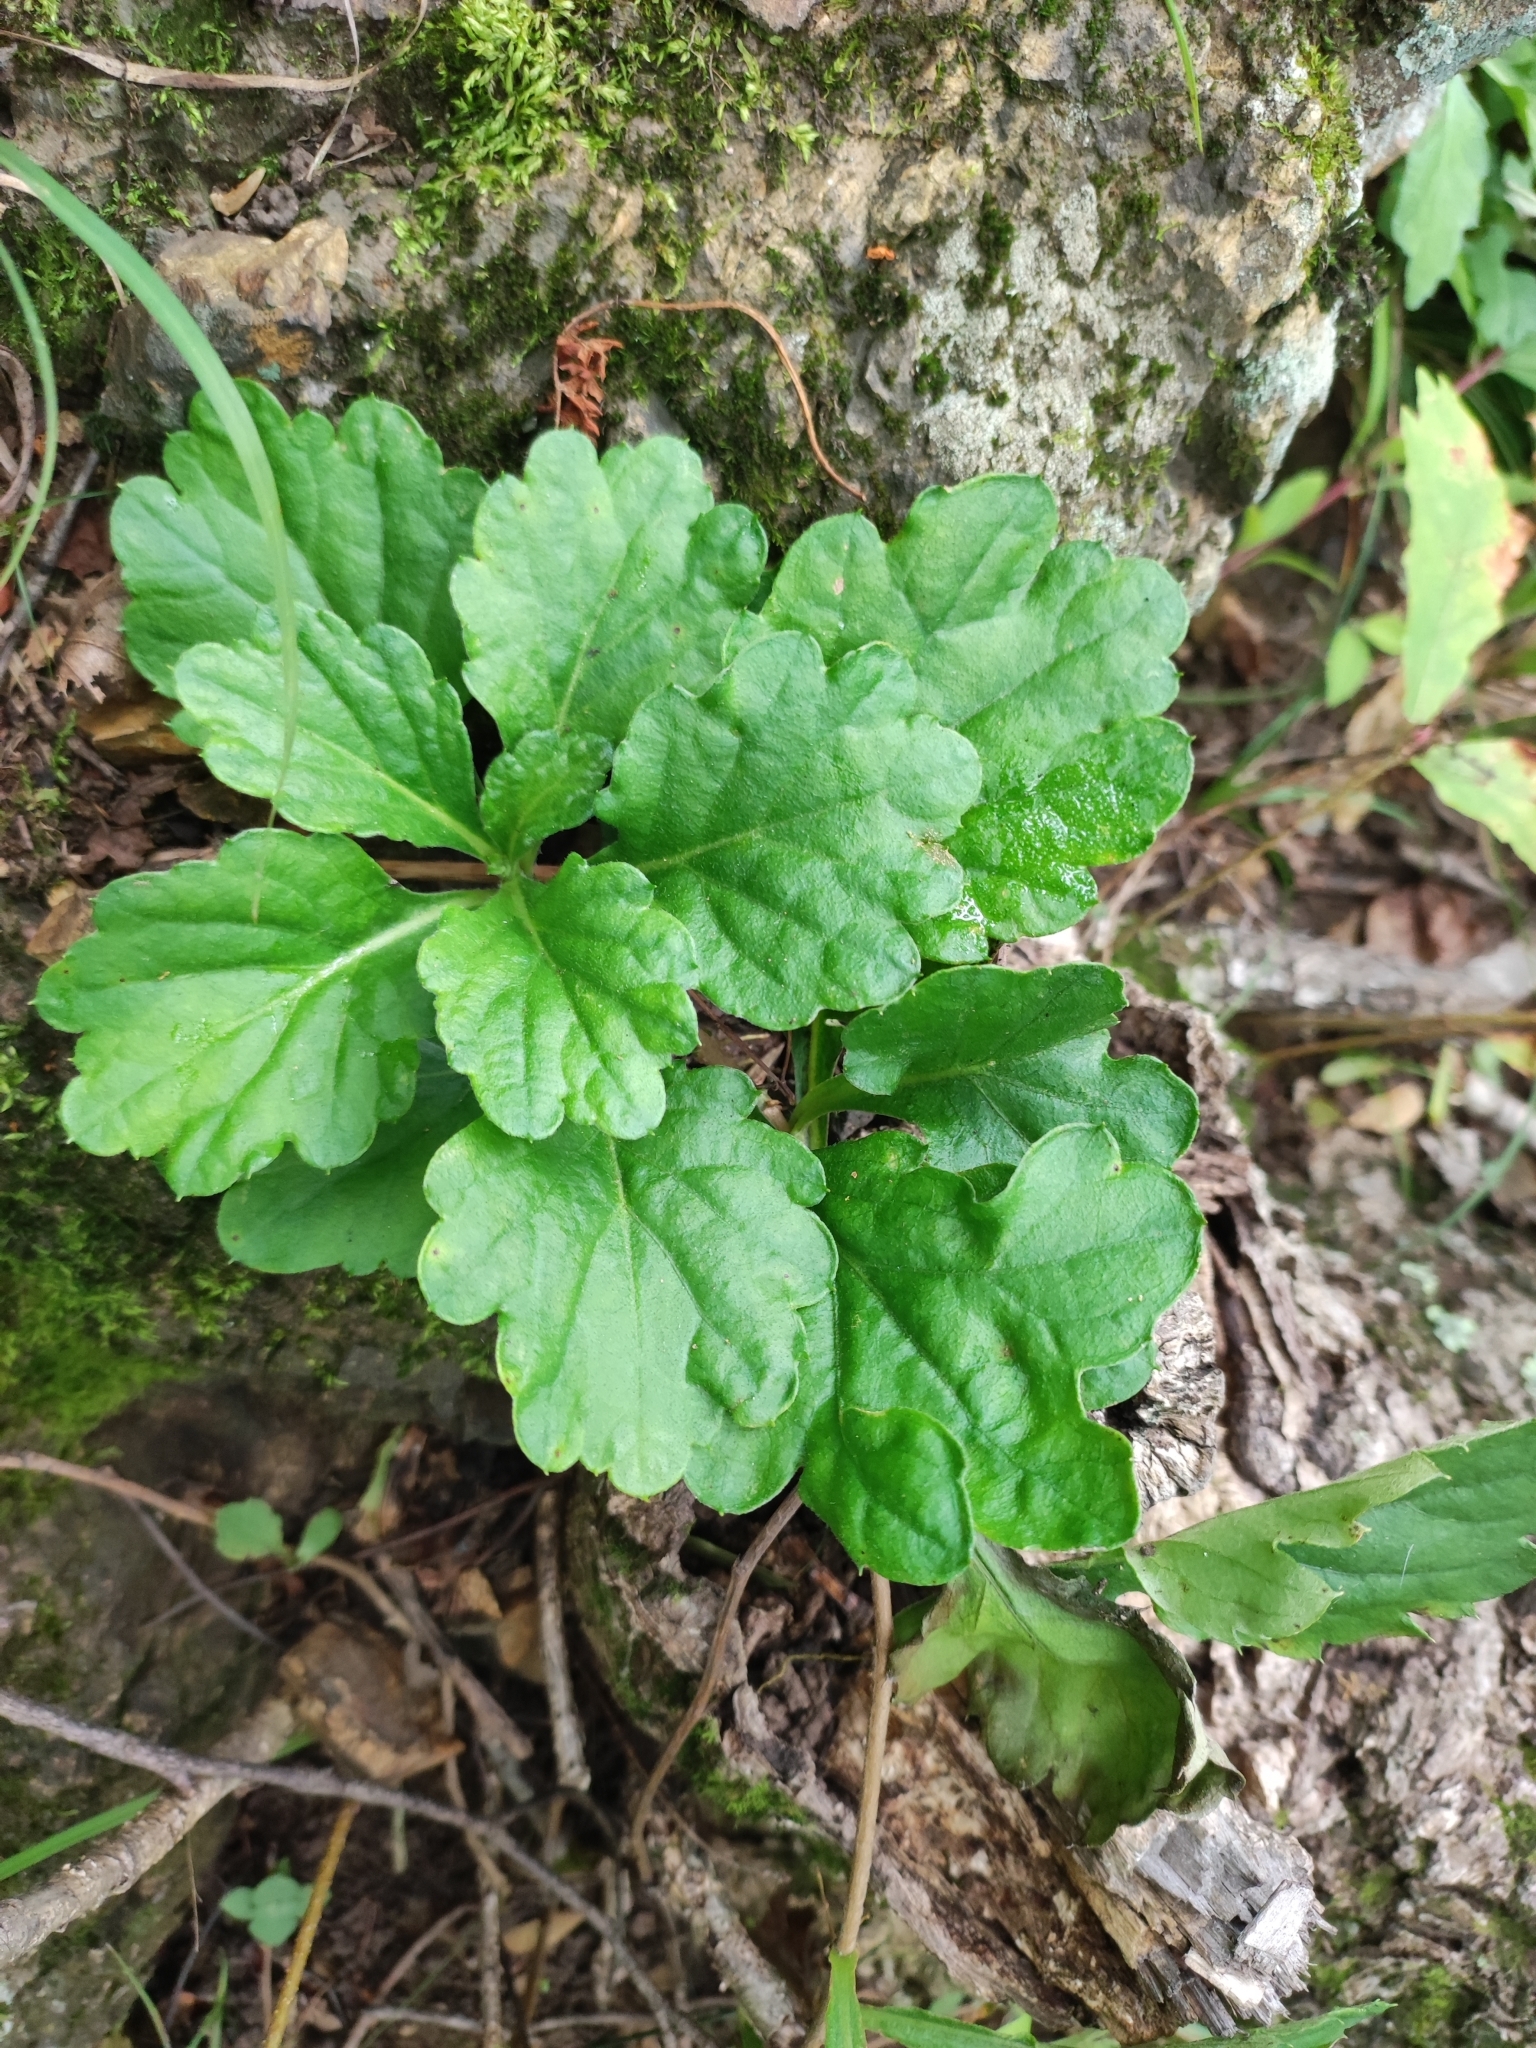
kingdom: Plantae
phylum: Tracheophyta
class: Magnoliopsida
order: Asterales
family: Asteraceae
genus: Artemisia
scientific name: Artemisia keiskeana
